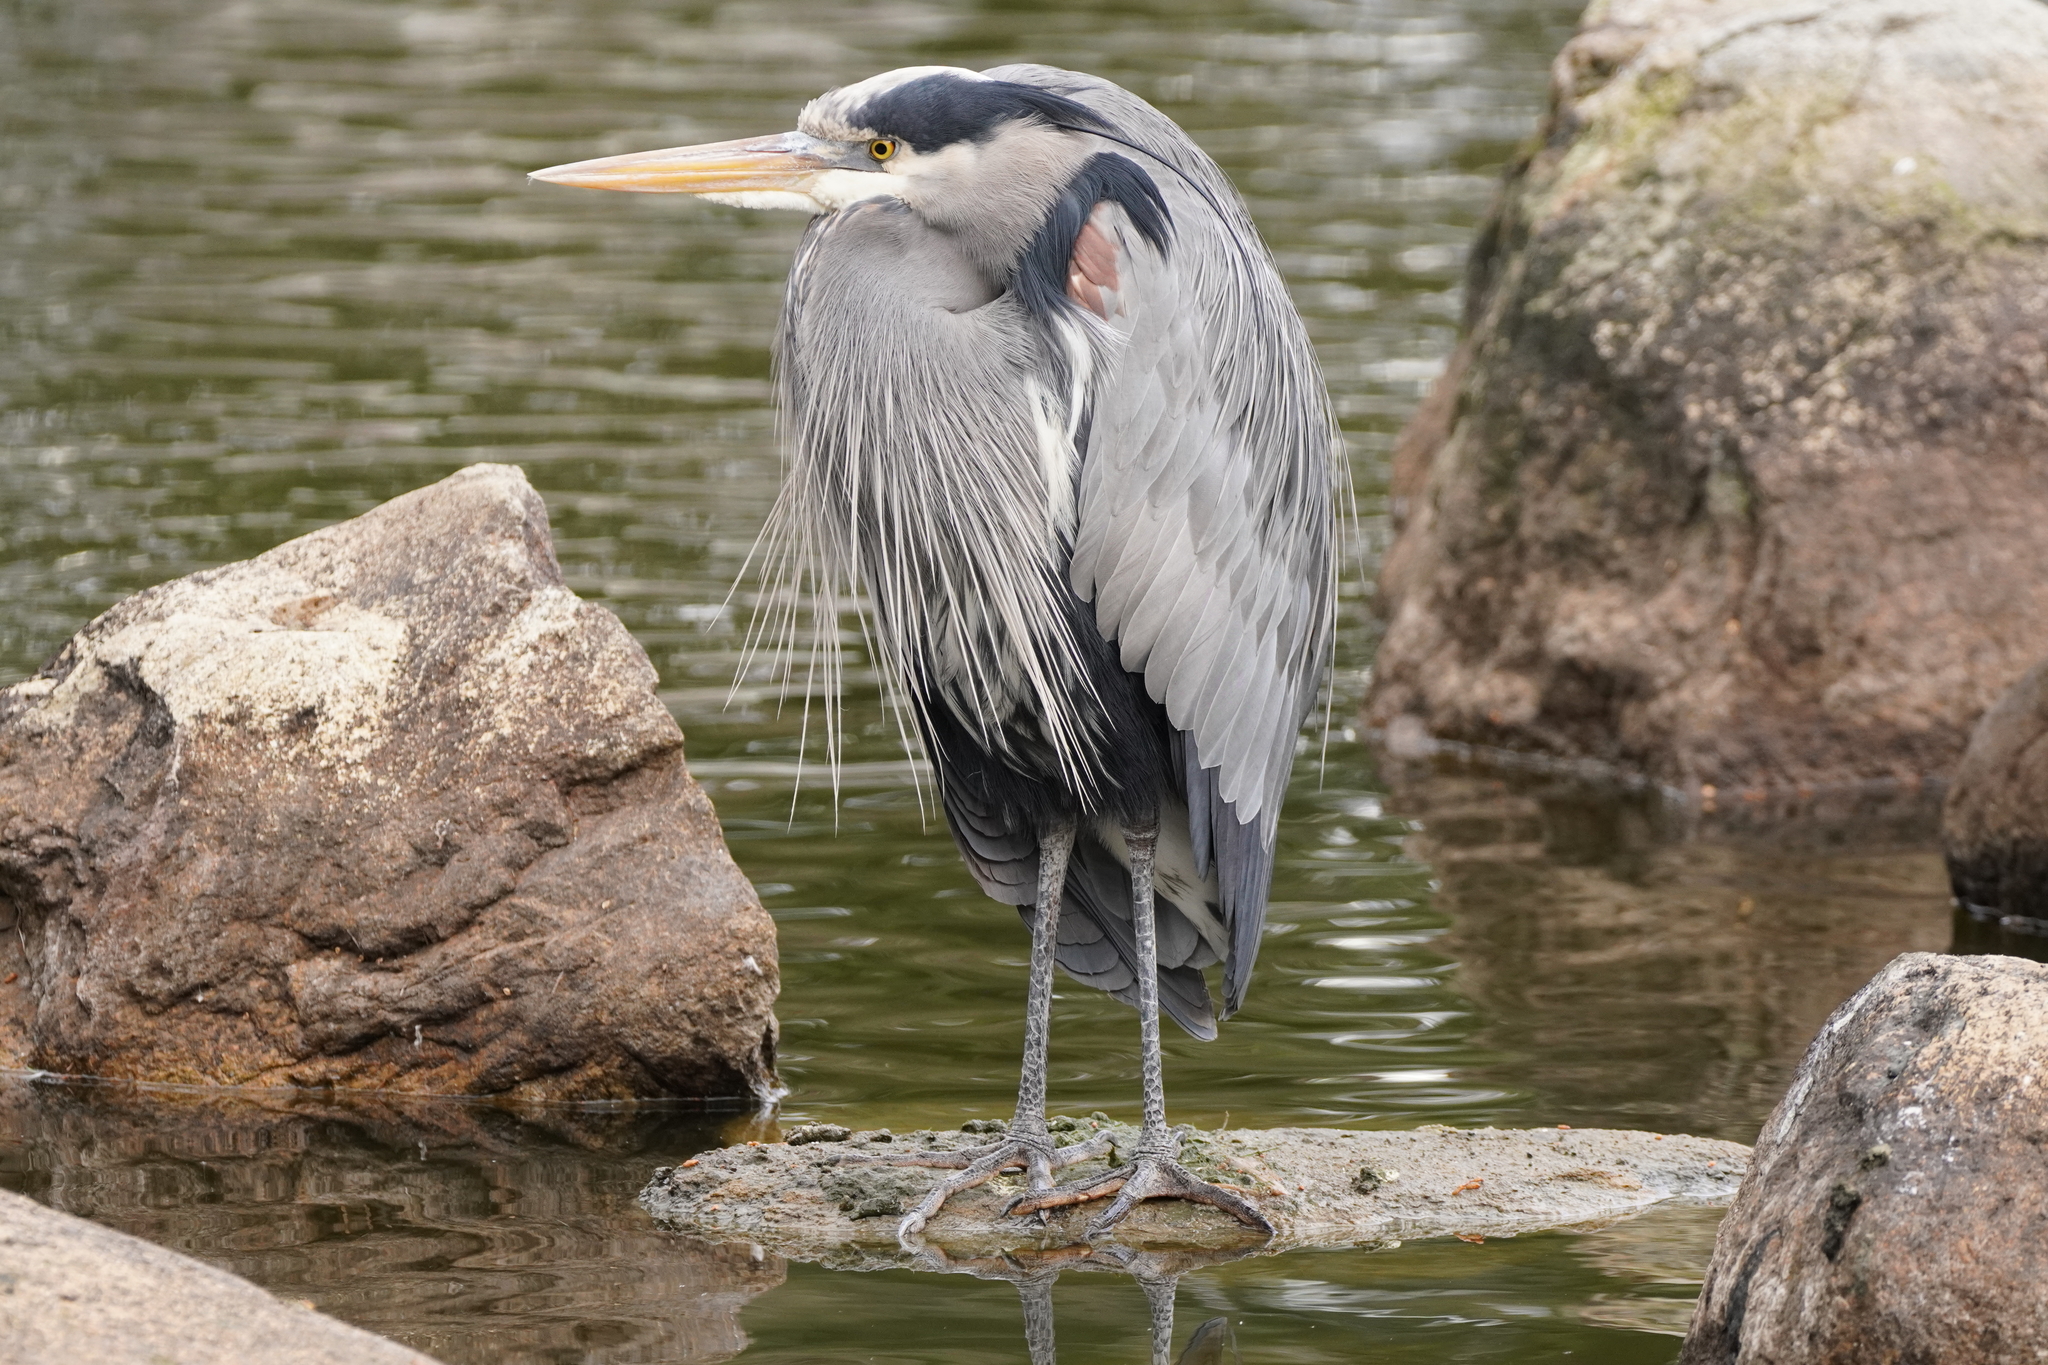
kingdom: Animalia
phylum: Chordata
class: Aves
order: Pelecaniformes
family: Ardeidae
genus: Ardea
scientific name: Ardea herodias
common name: Great blue heron
